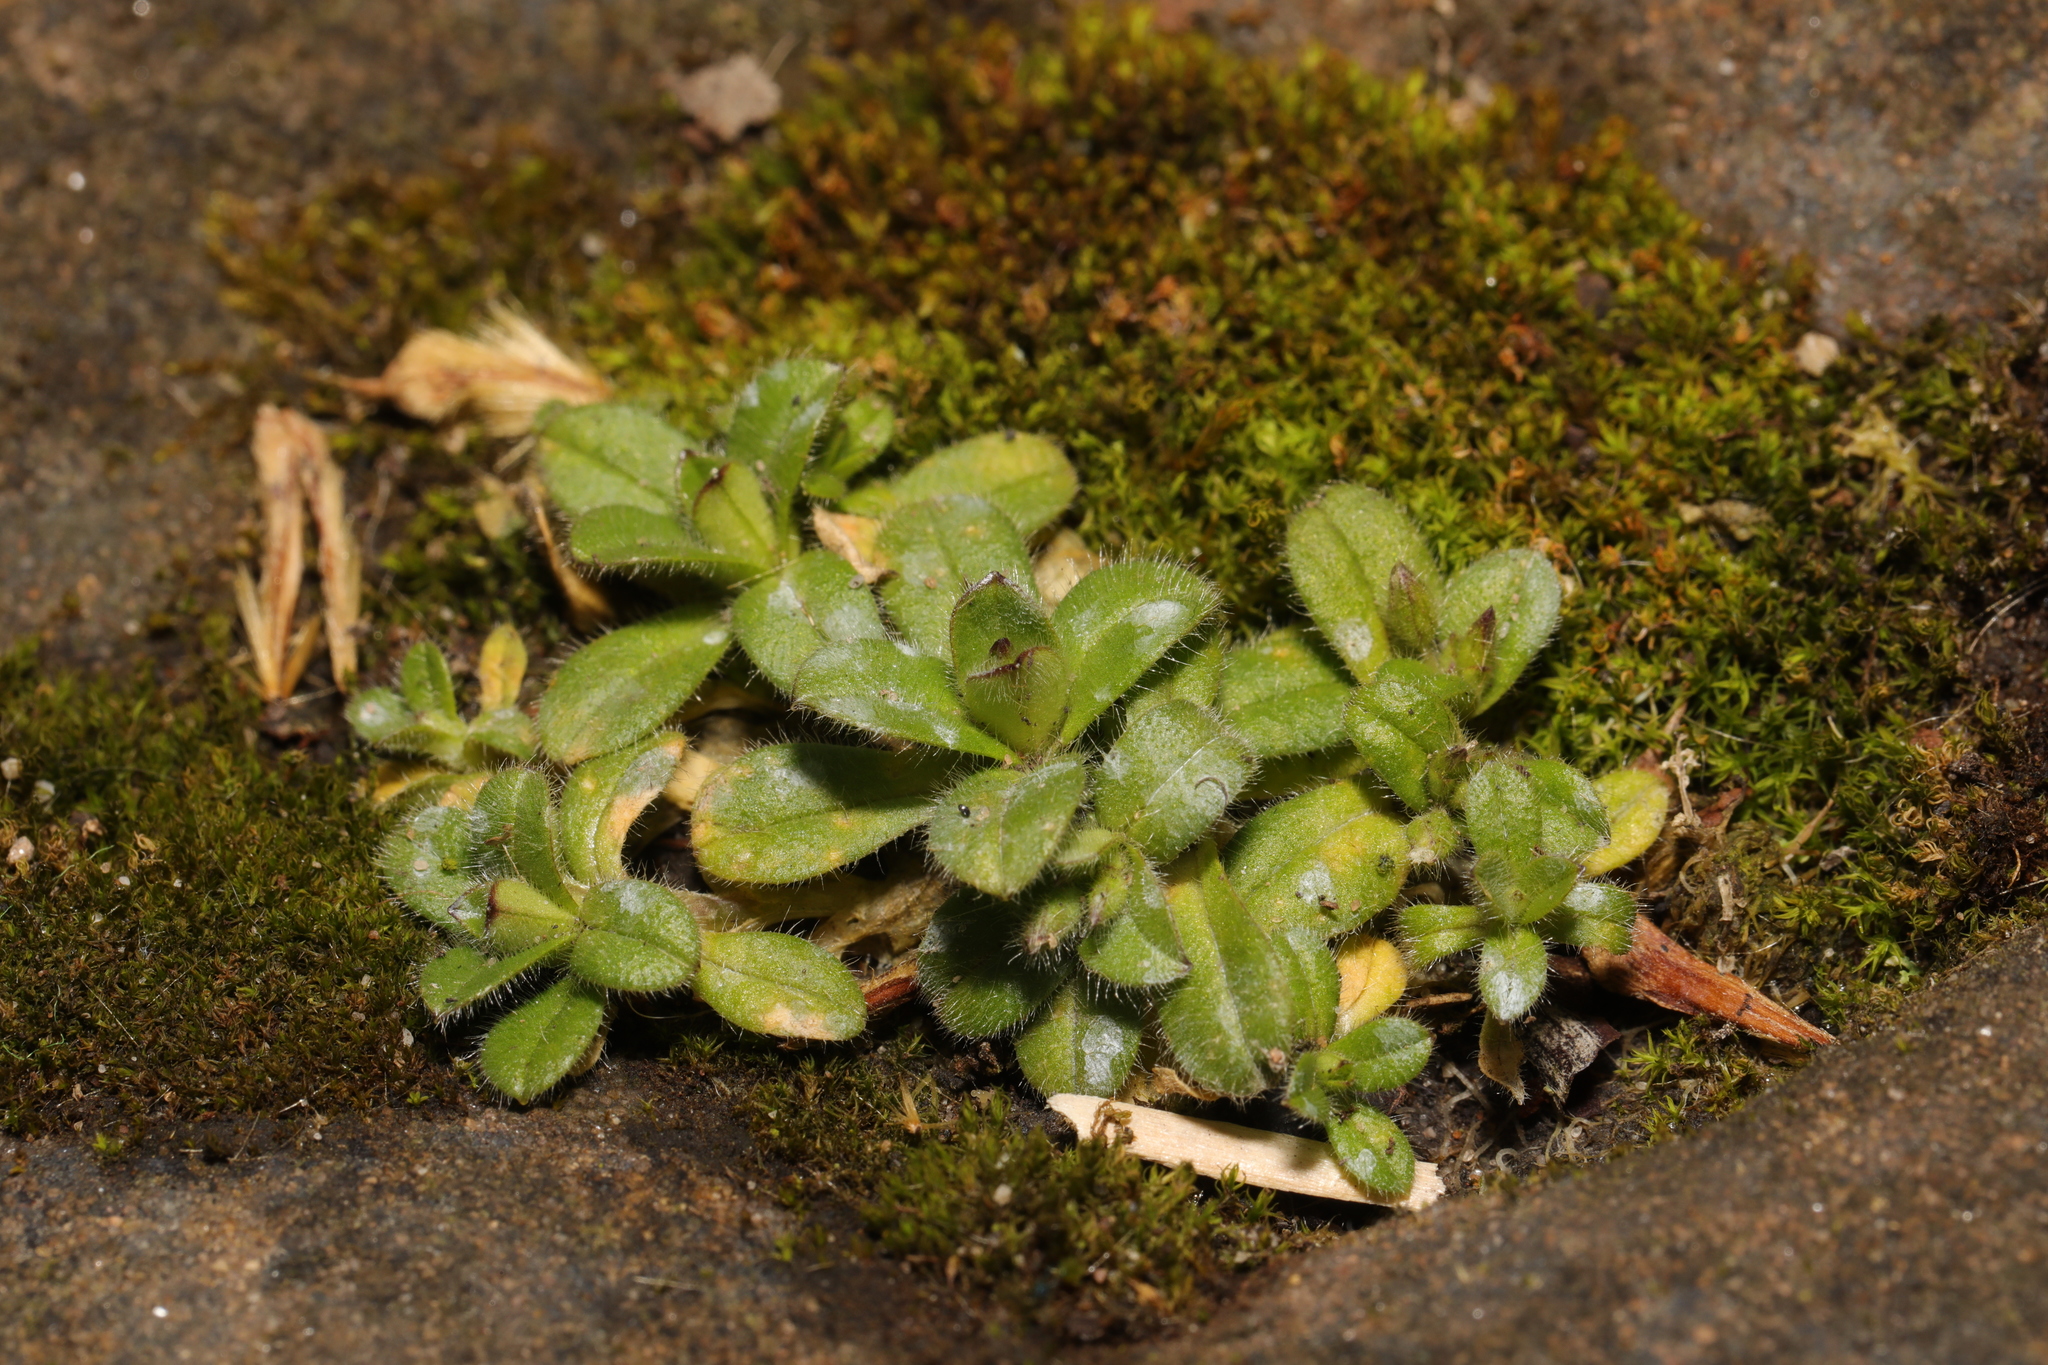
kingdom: Plantae
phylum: Tracheophyta
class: Magnoliopsida
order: Caryophyllales
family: Caryophyllaceae
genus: Cerastium
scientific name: Cerastium fontanum
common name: Common mouse-ear
